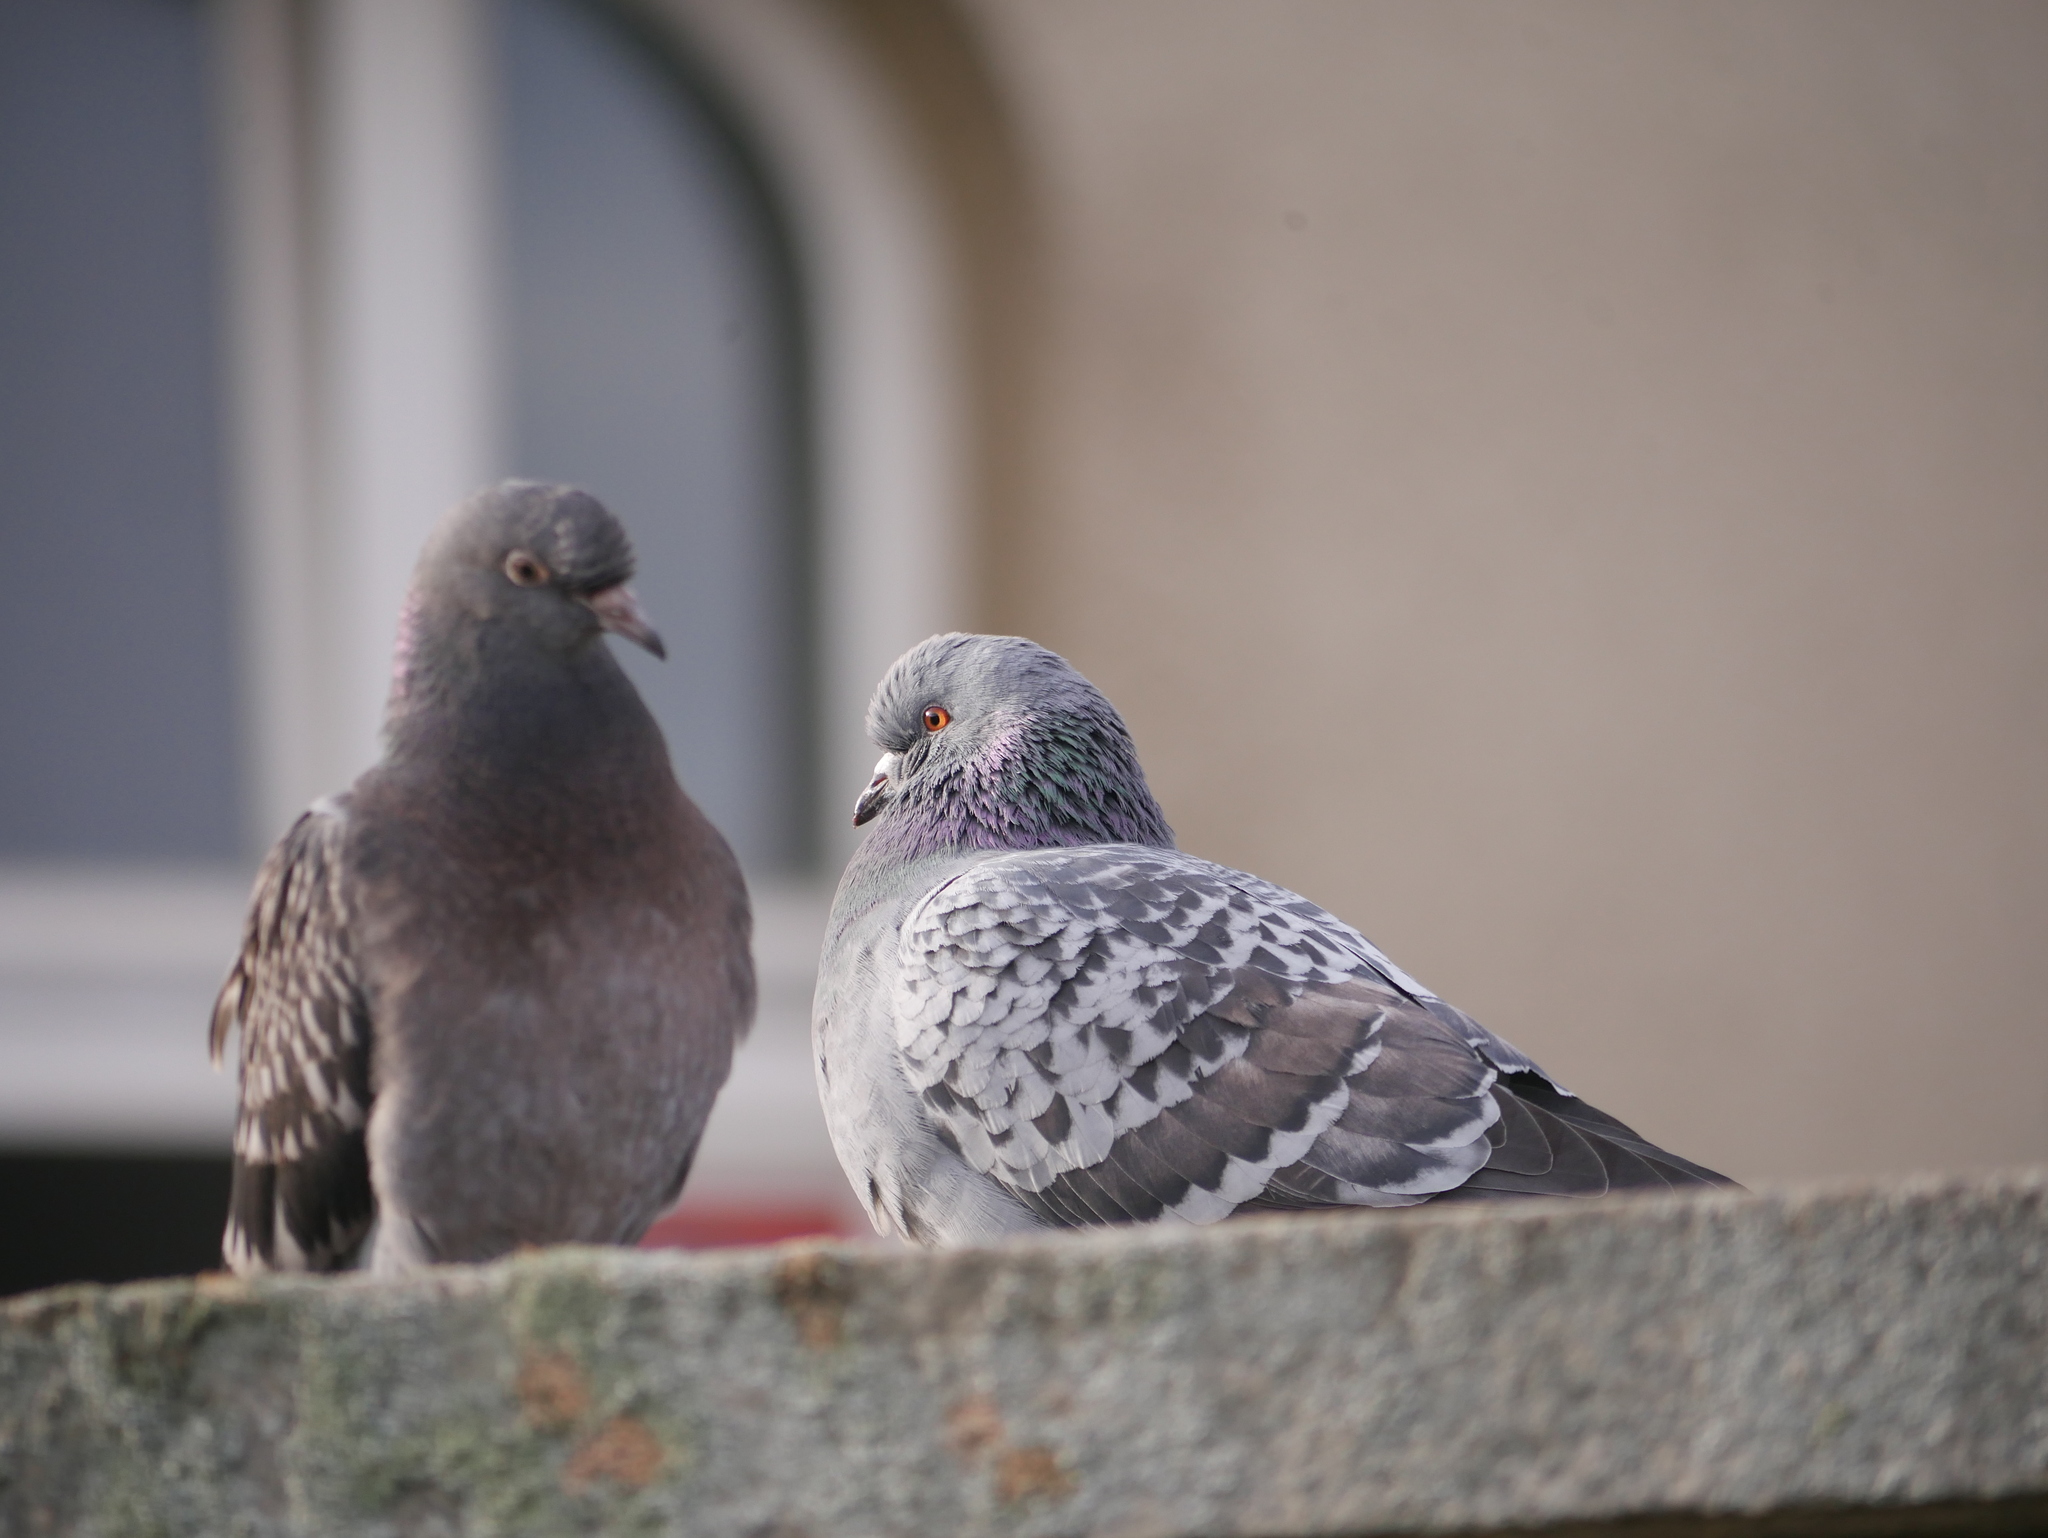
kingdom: Animalia
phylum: Chordata
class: Aves
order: Columbiformes
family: Columbidae
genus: Columba
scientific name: Columba livia
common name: Rock pigeon
